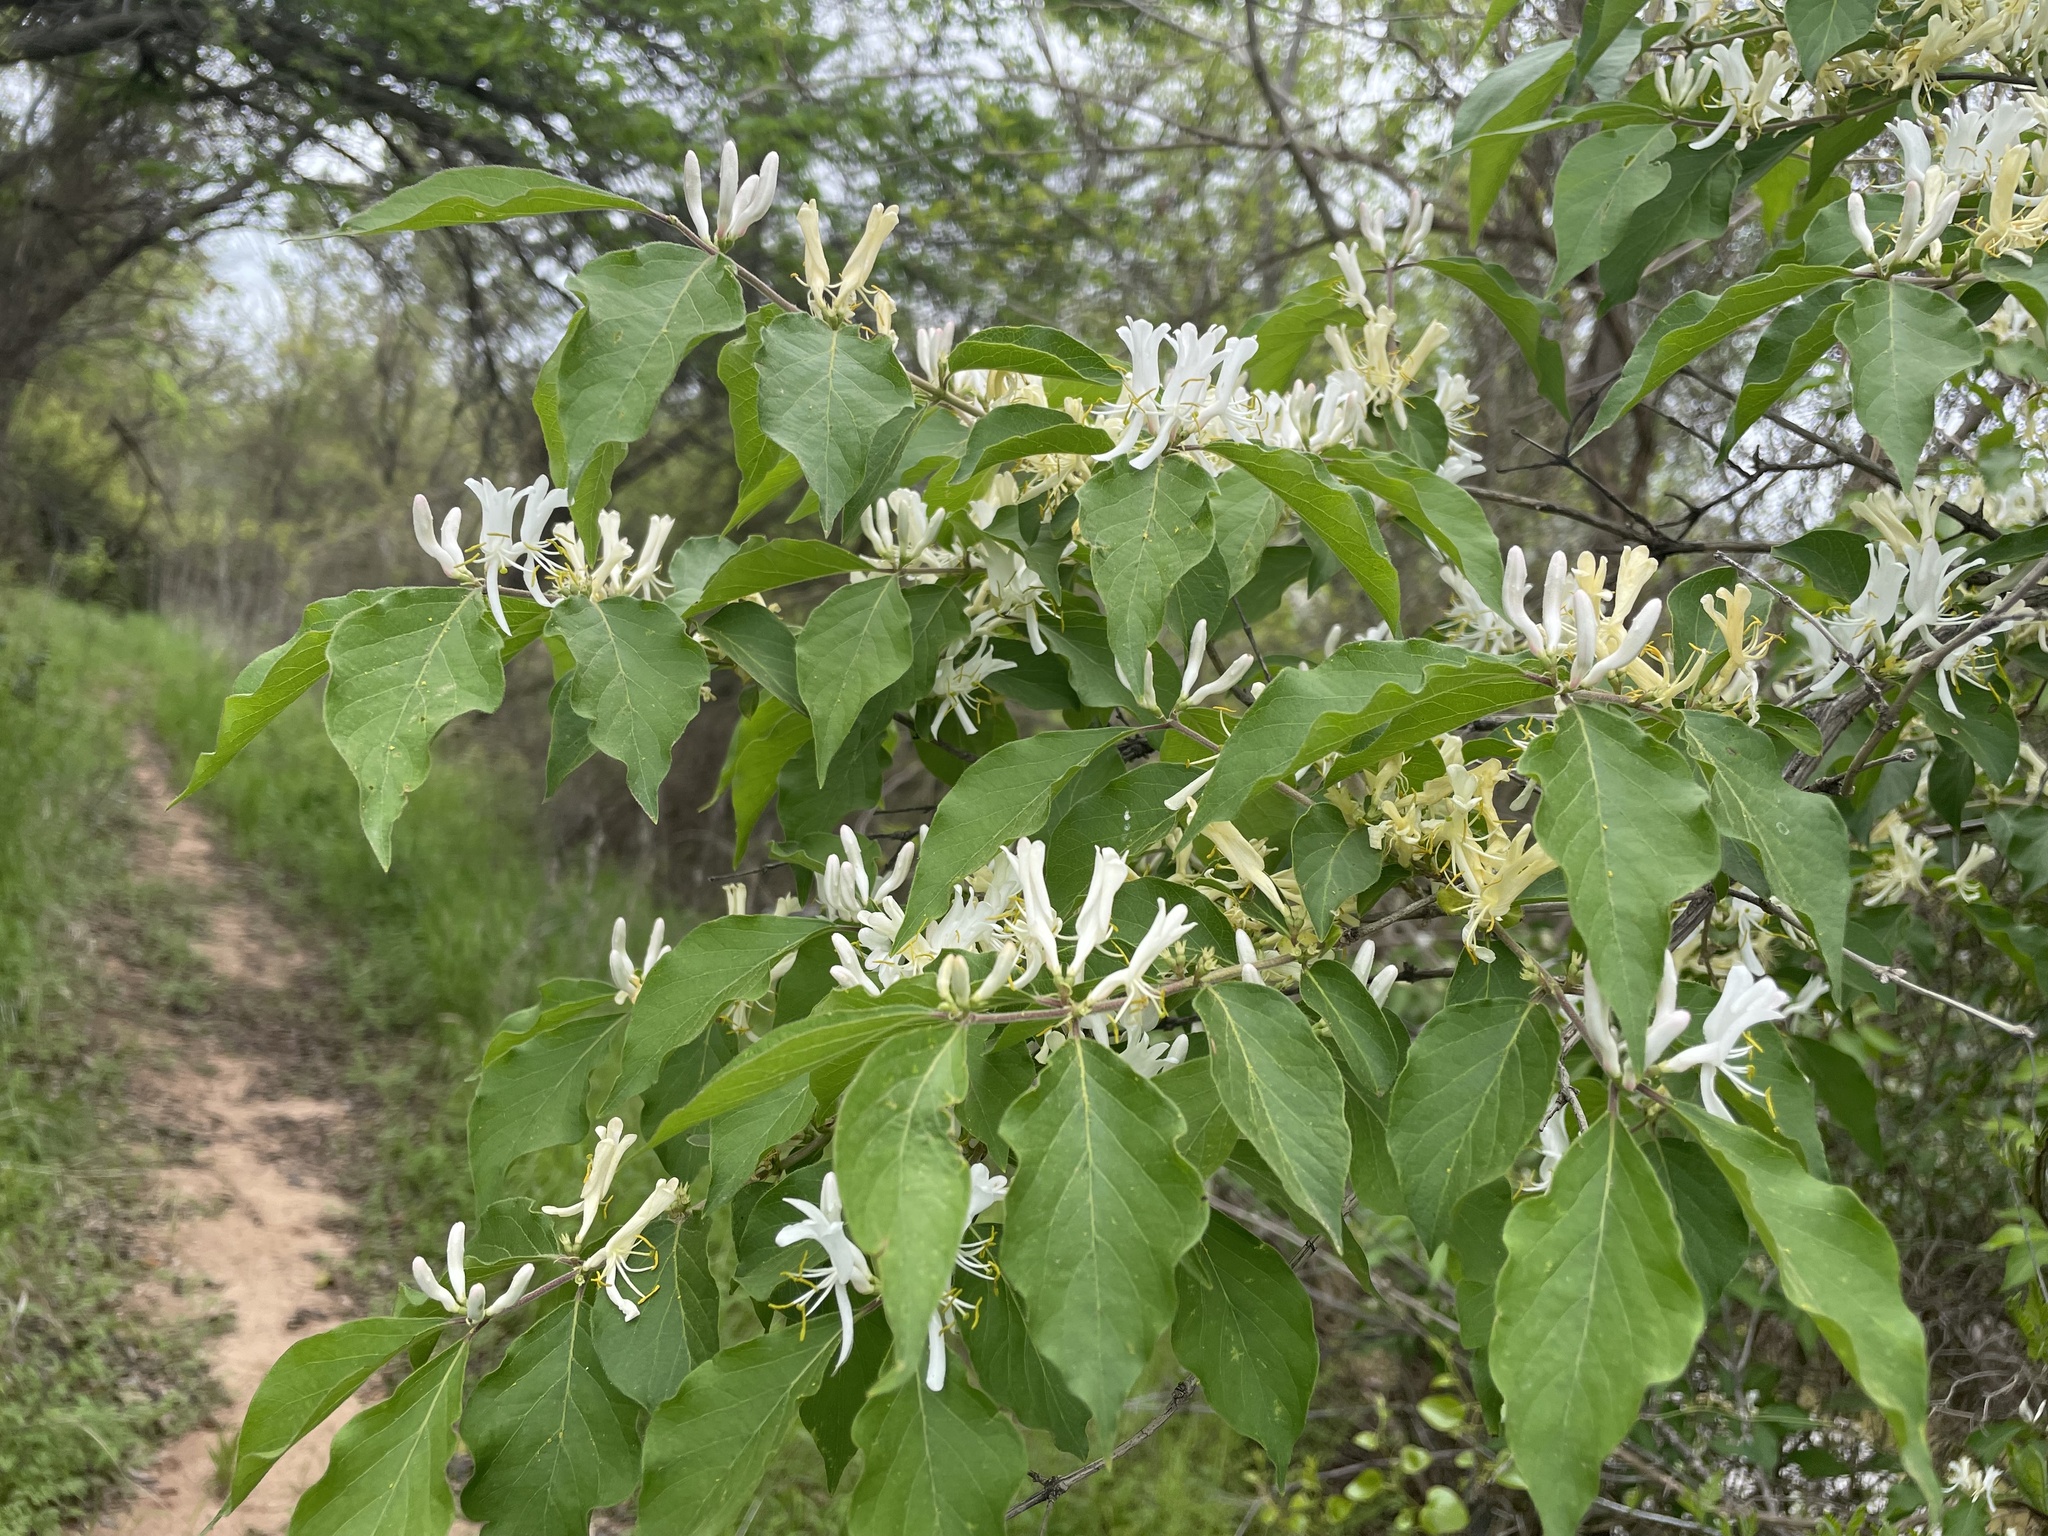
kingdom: Plantae
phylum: Tracheophyta
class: Magnoliopsida
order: Dipsacales
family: Caprifoliaceae
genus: Lonicera
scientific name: Lonicera maackii
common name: Amur honeysuckle
